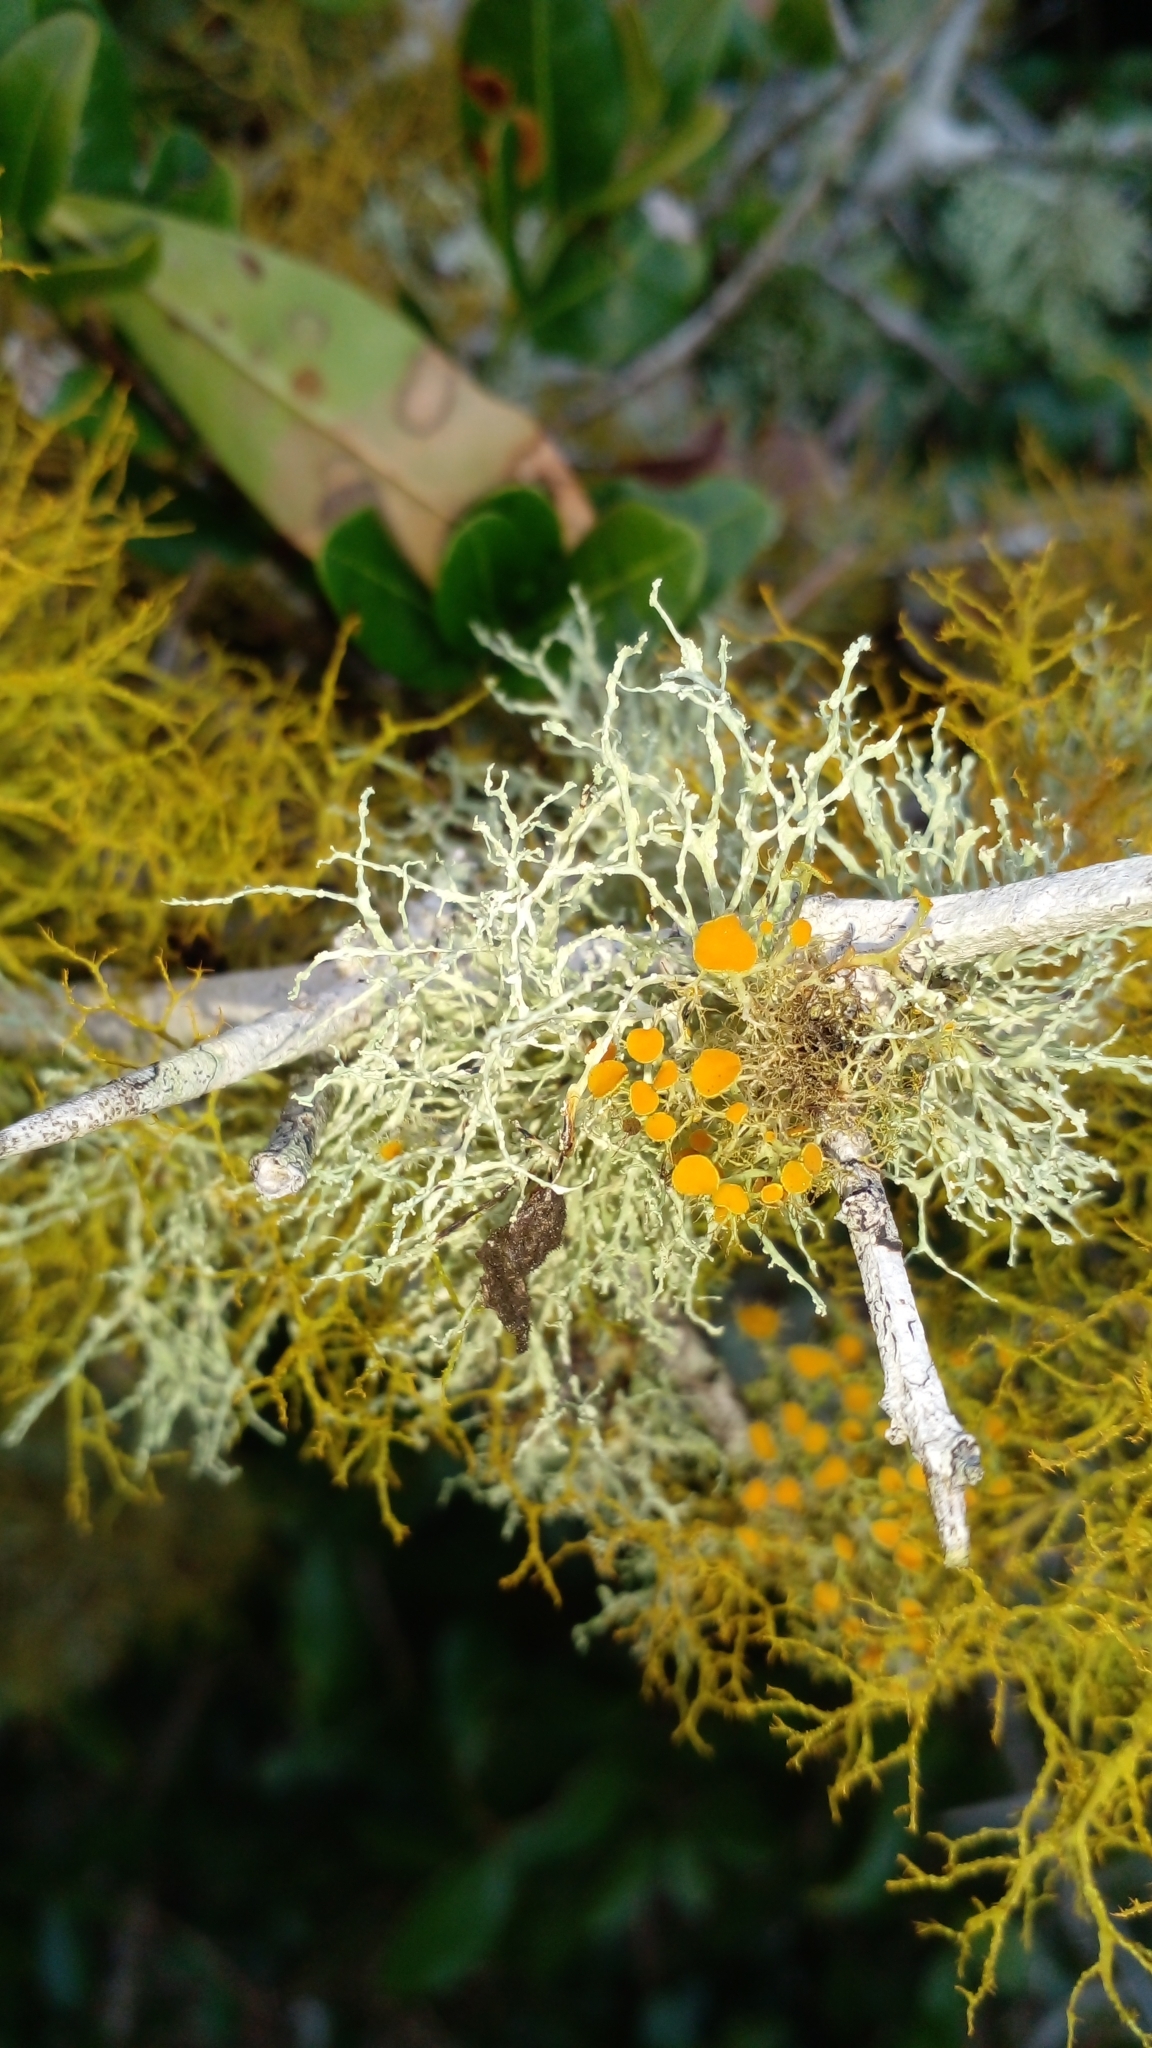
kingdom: Fungi
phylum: Ascomycota
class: Lecanoromycetes
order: Teloschistales
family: Teloschistaceae
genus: Teloschistes
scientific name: Teloschistes exilis
